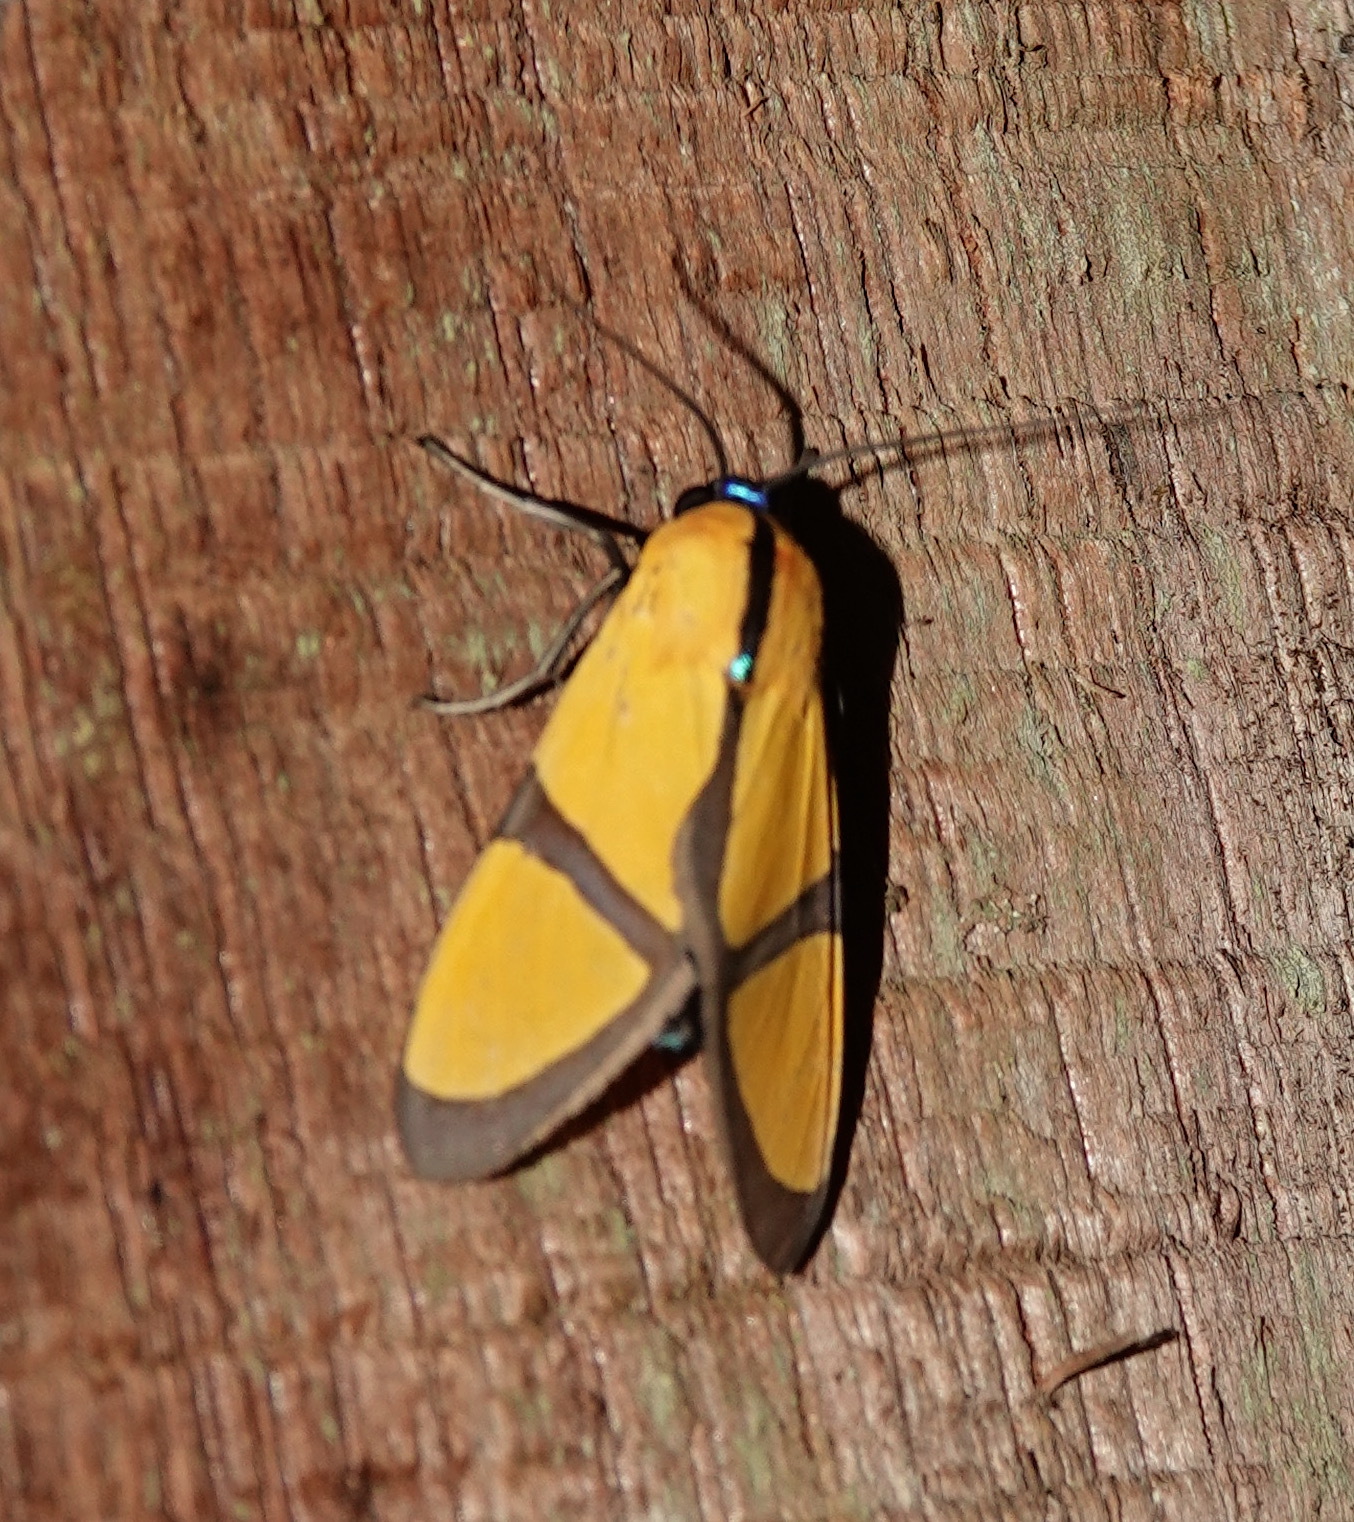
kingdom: Animalia
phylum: Arthropoda
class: Insecta
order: Lepidoptera
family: Erebidae
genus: Ormetica
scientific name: Ormetica ameoides
